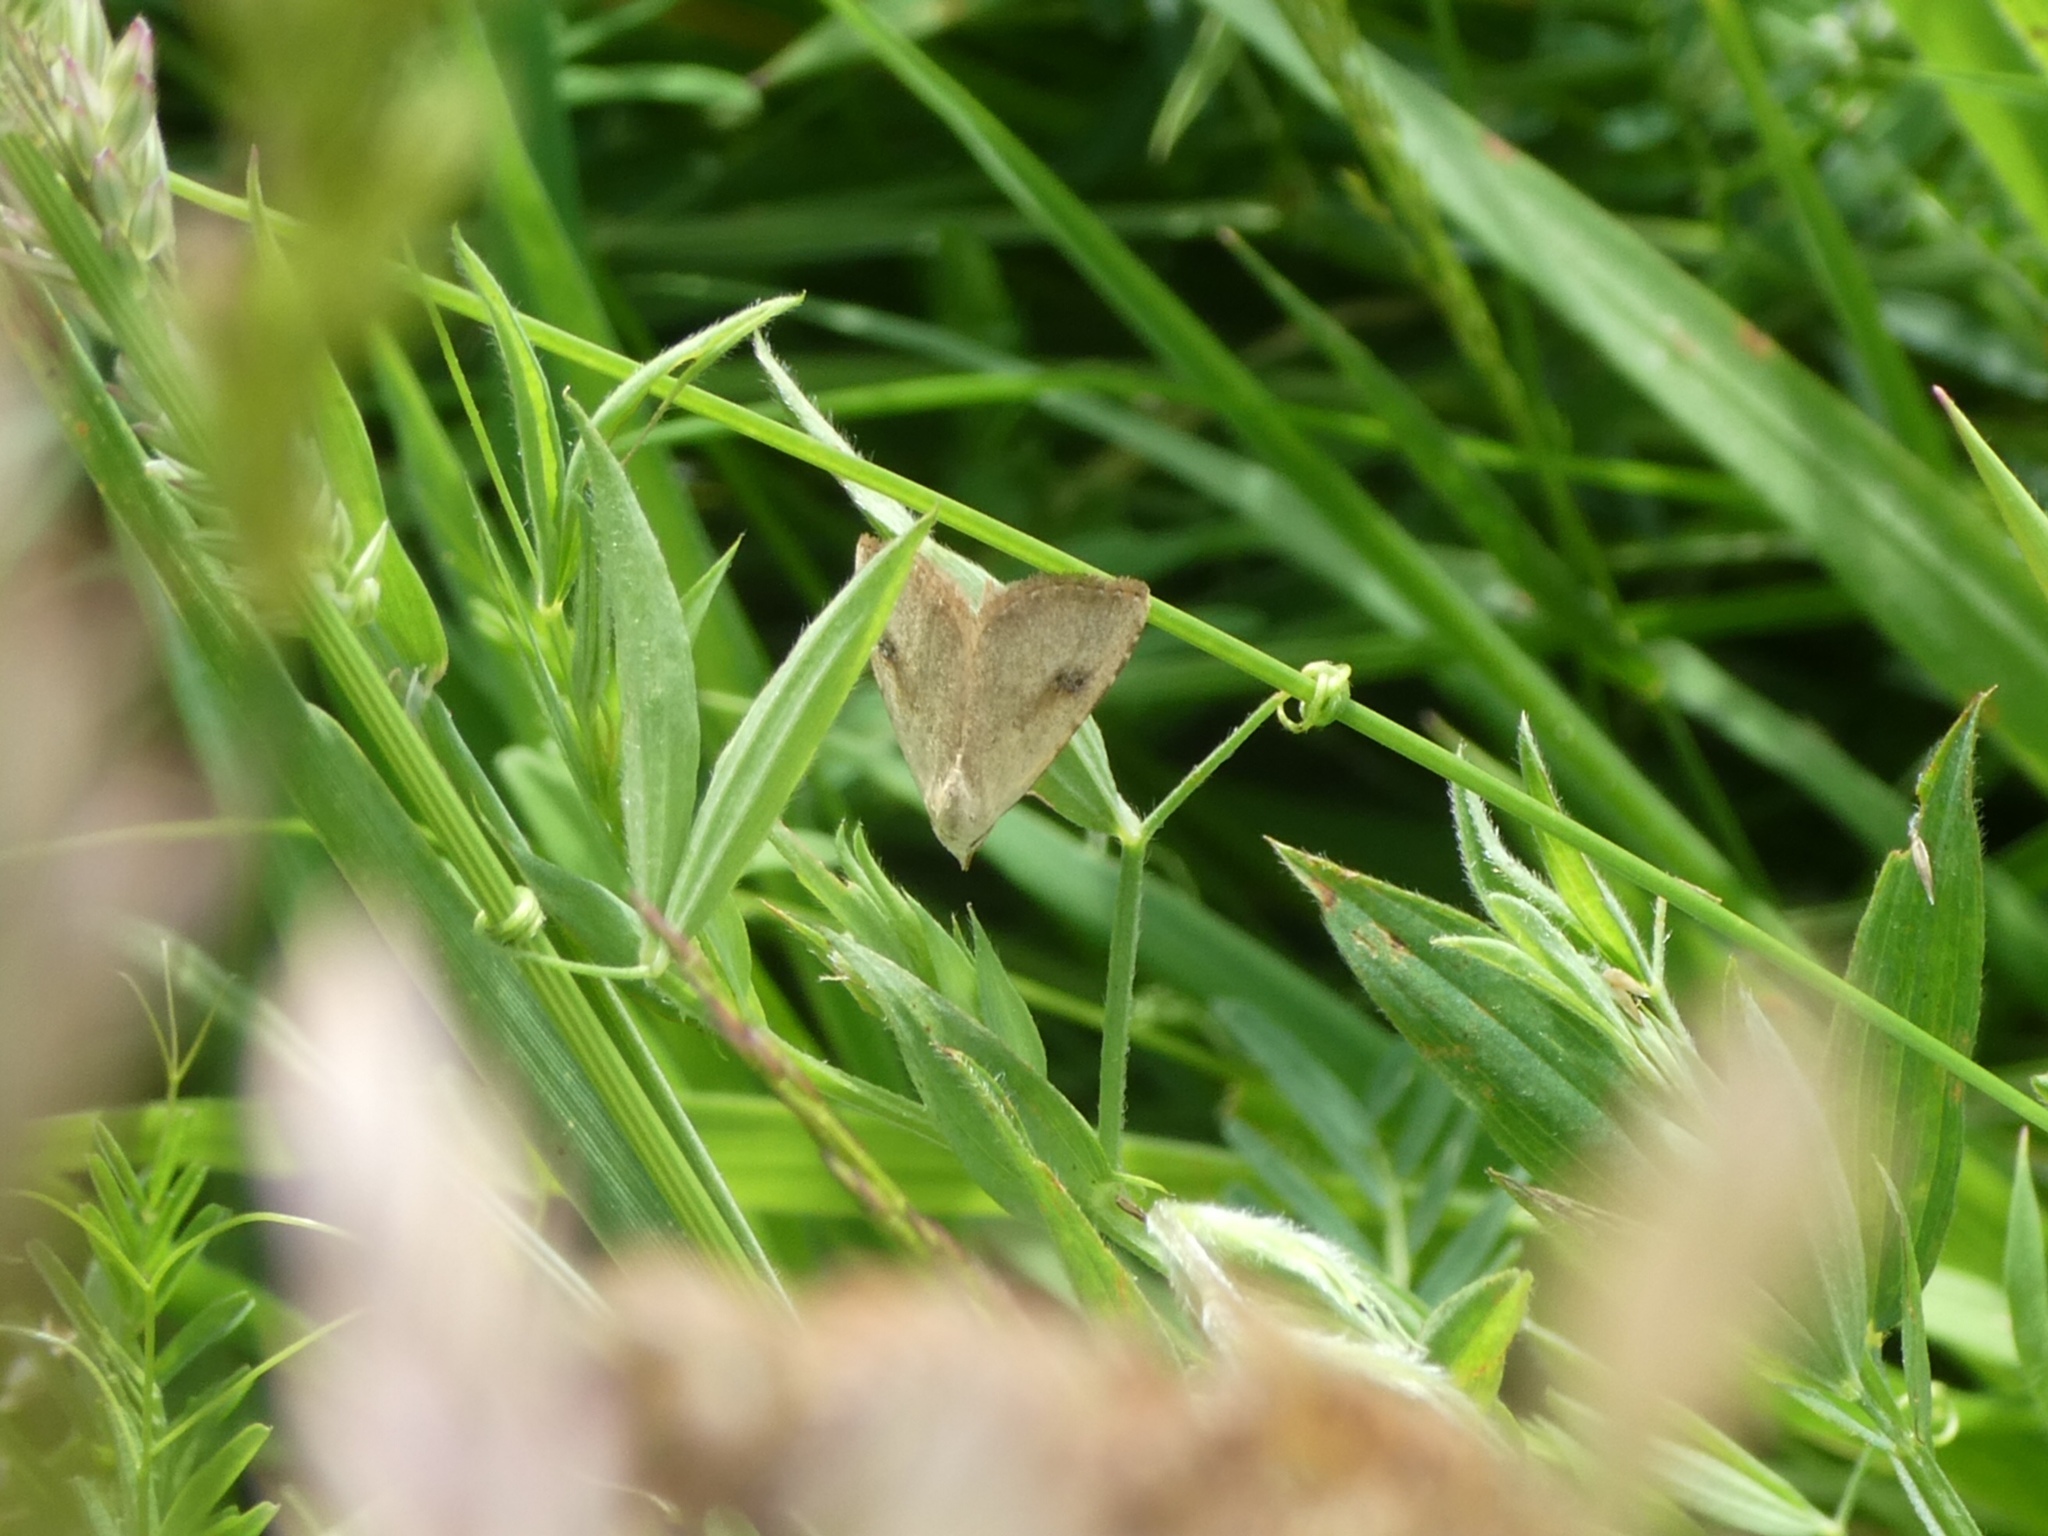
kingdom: Animalia
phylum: Arthropoda
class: Insecta
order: Lepidoptera
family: Erebidae
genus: Rivula
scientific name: Rivula sericealis
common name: Straw dot
